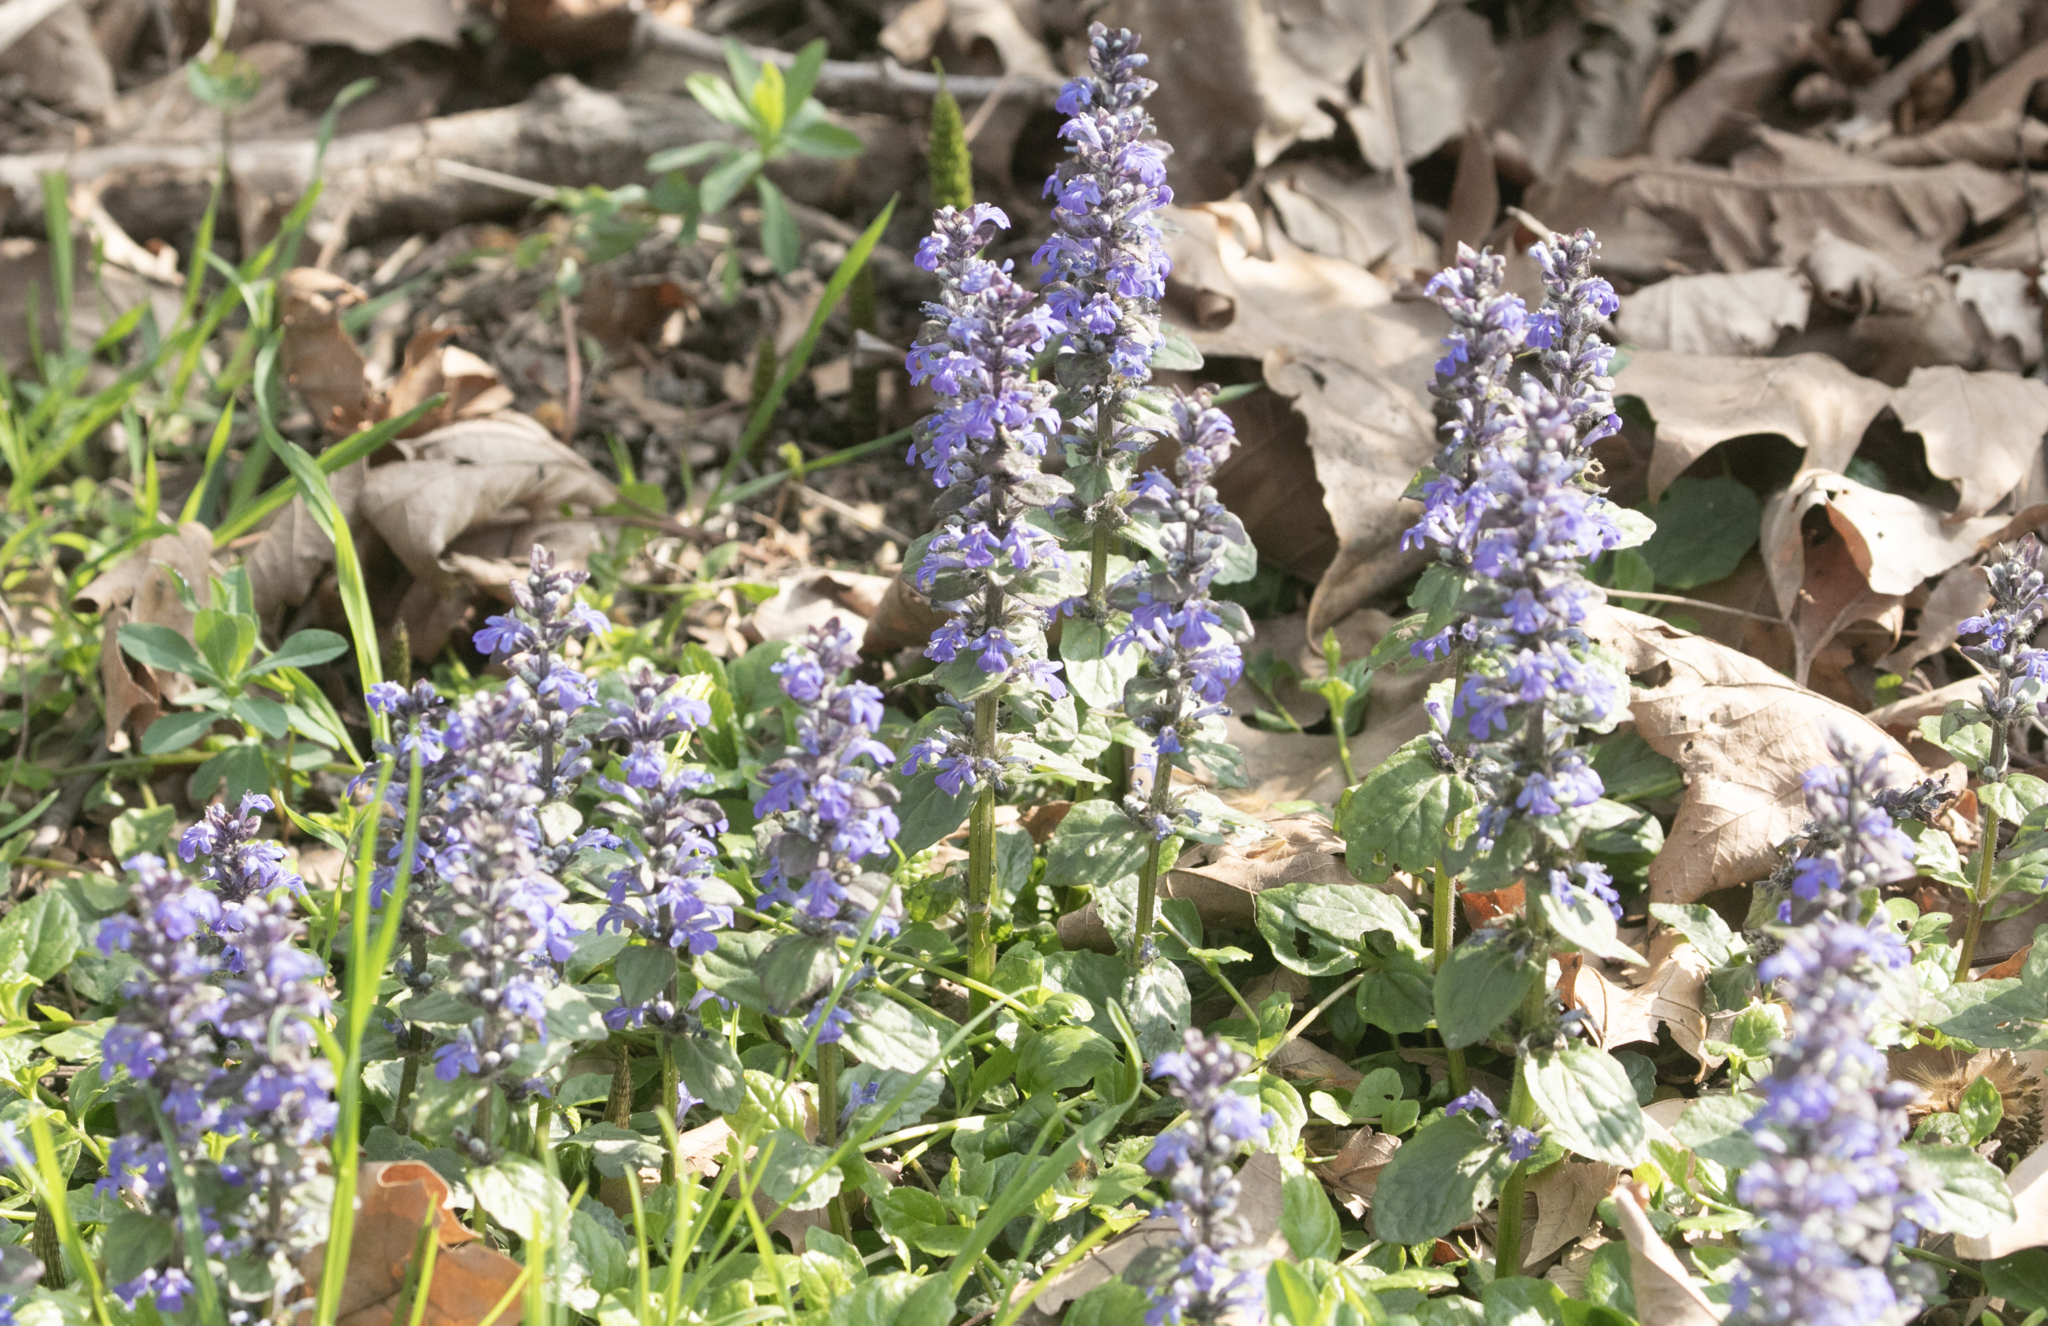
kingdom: Plantae
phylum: Tracheophyta
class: Magnoliopsida
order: Lamiales
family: Lamiaceae
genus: Ajuga
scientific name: Ajuga reptans
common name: Bugle
